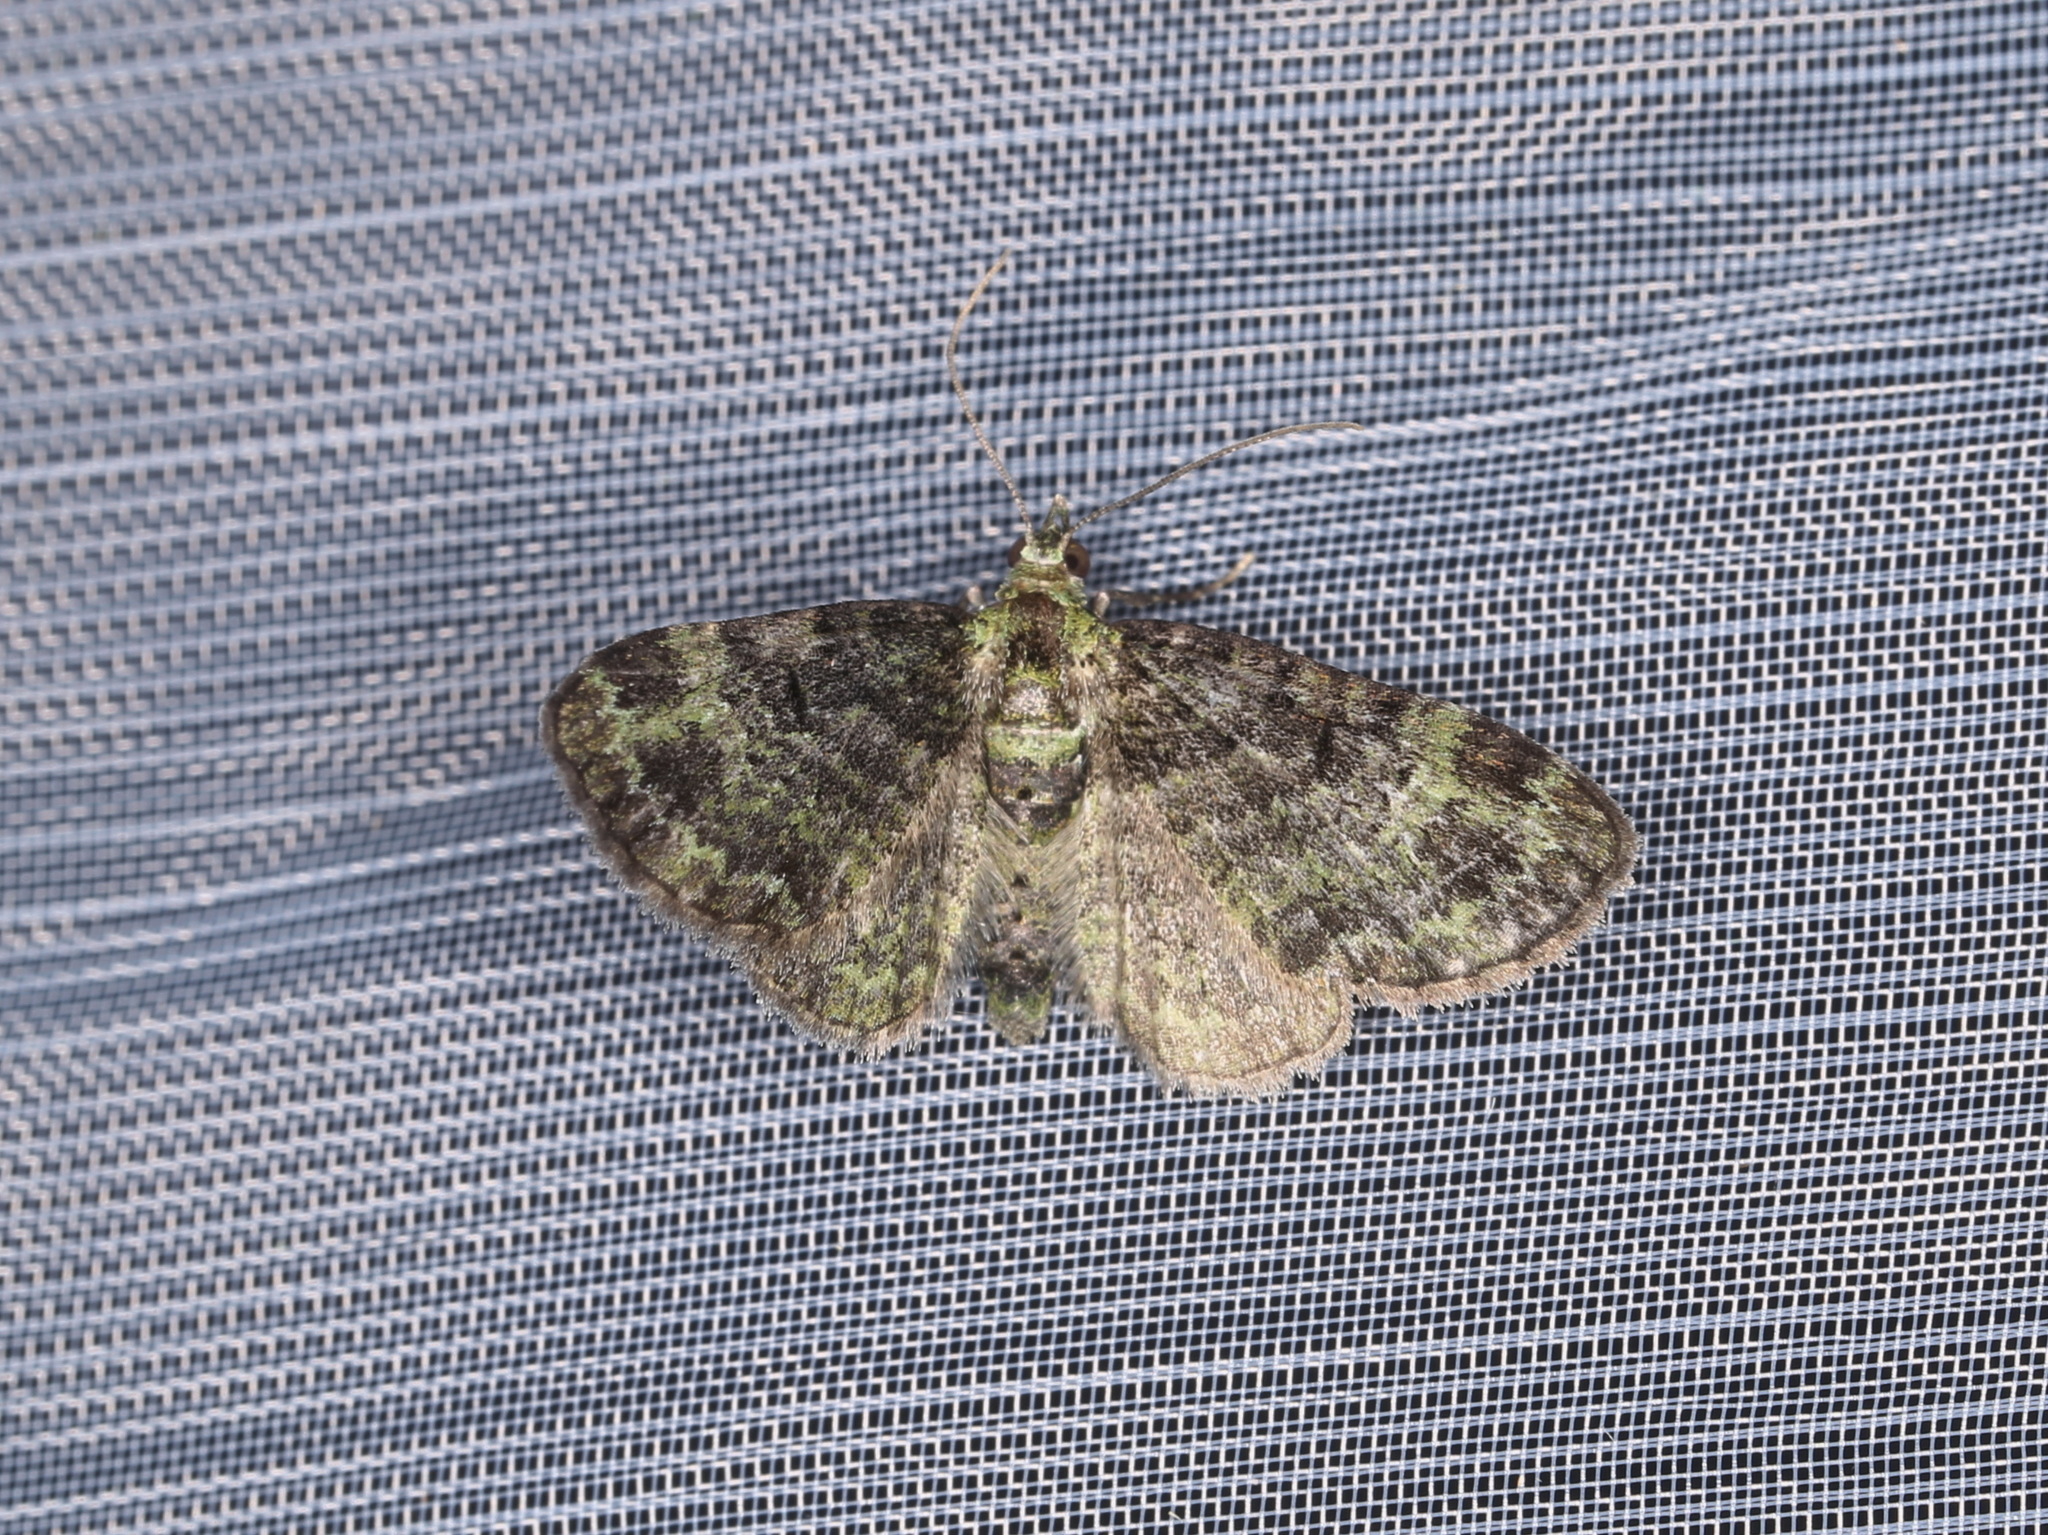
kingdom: Animalia
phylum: Arthropoda
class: Insecta
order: Lepidoptera
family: Geometridae
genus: Pasiphila
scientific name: Pasiphila rectangulata
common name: Green pug
